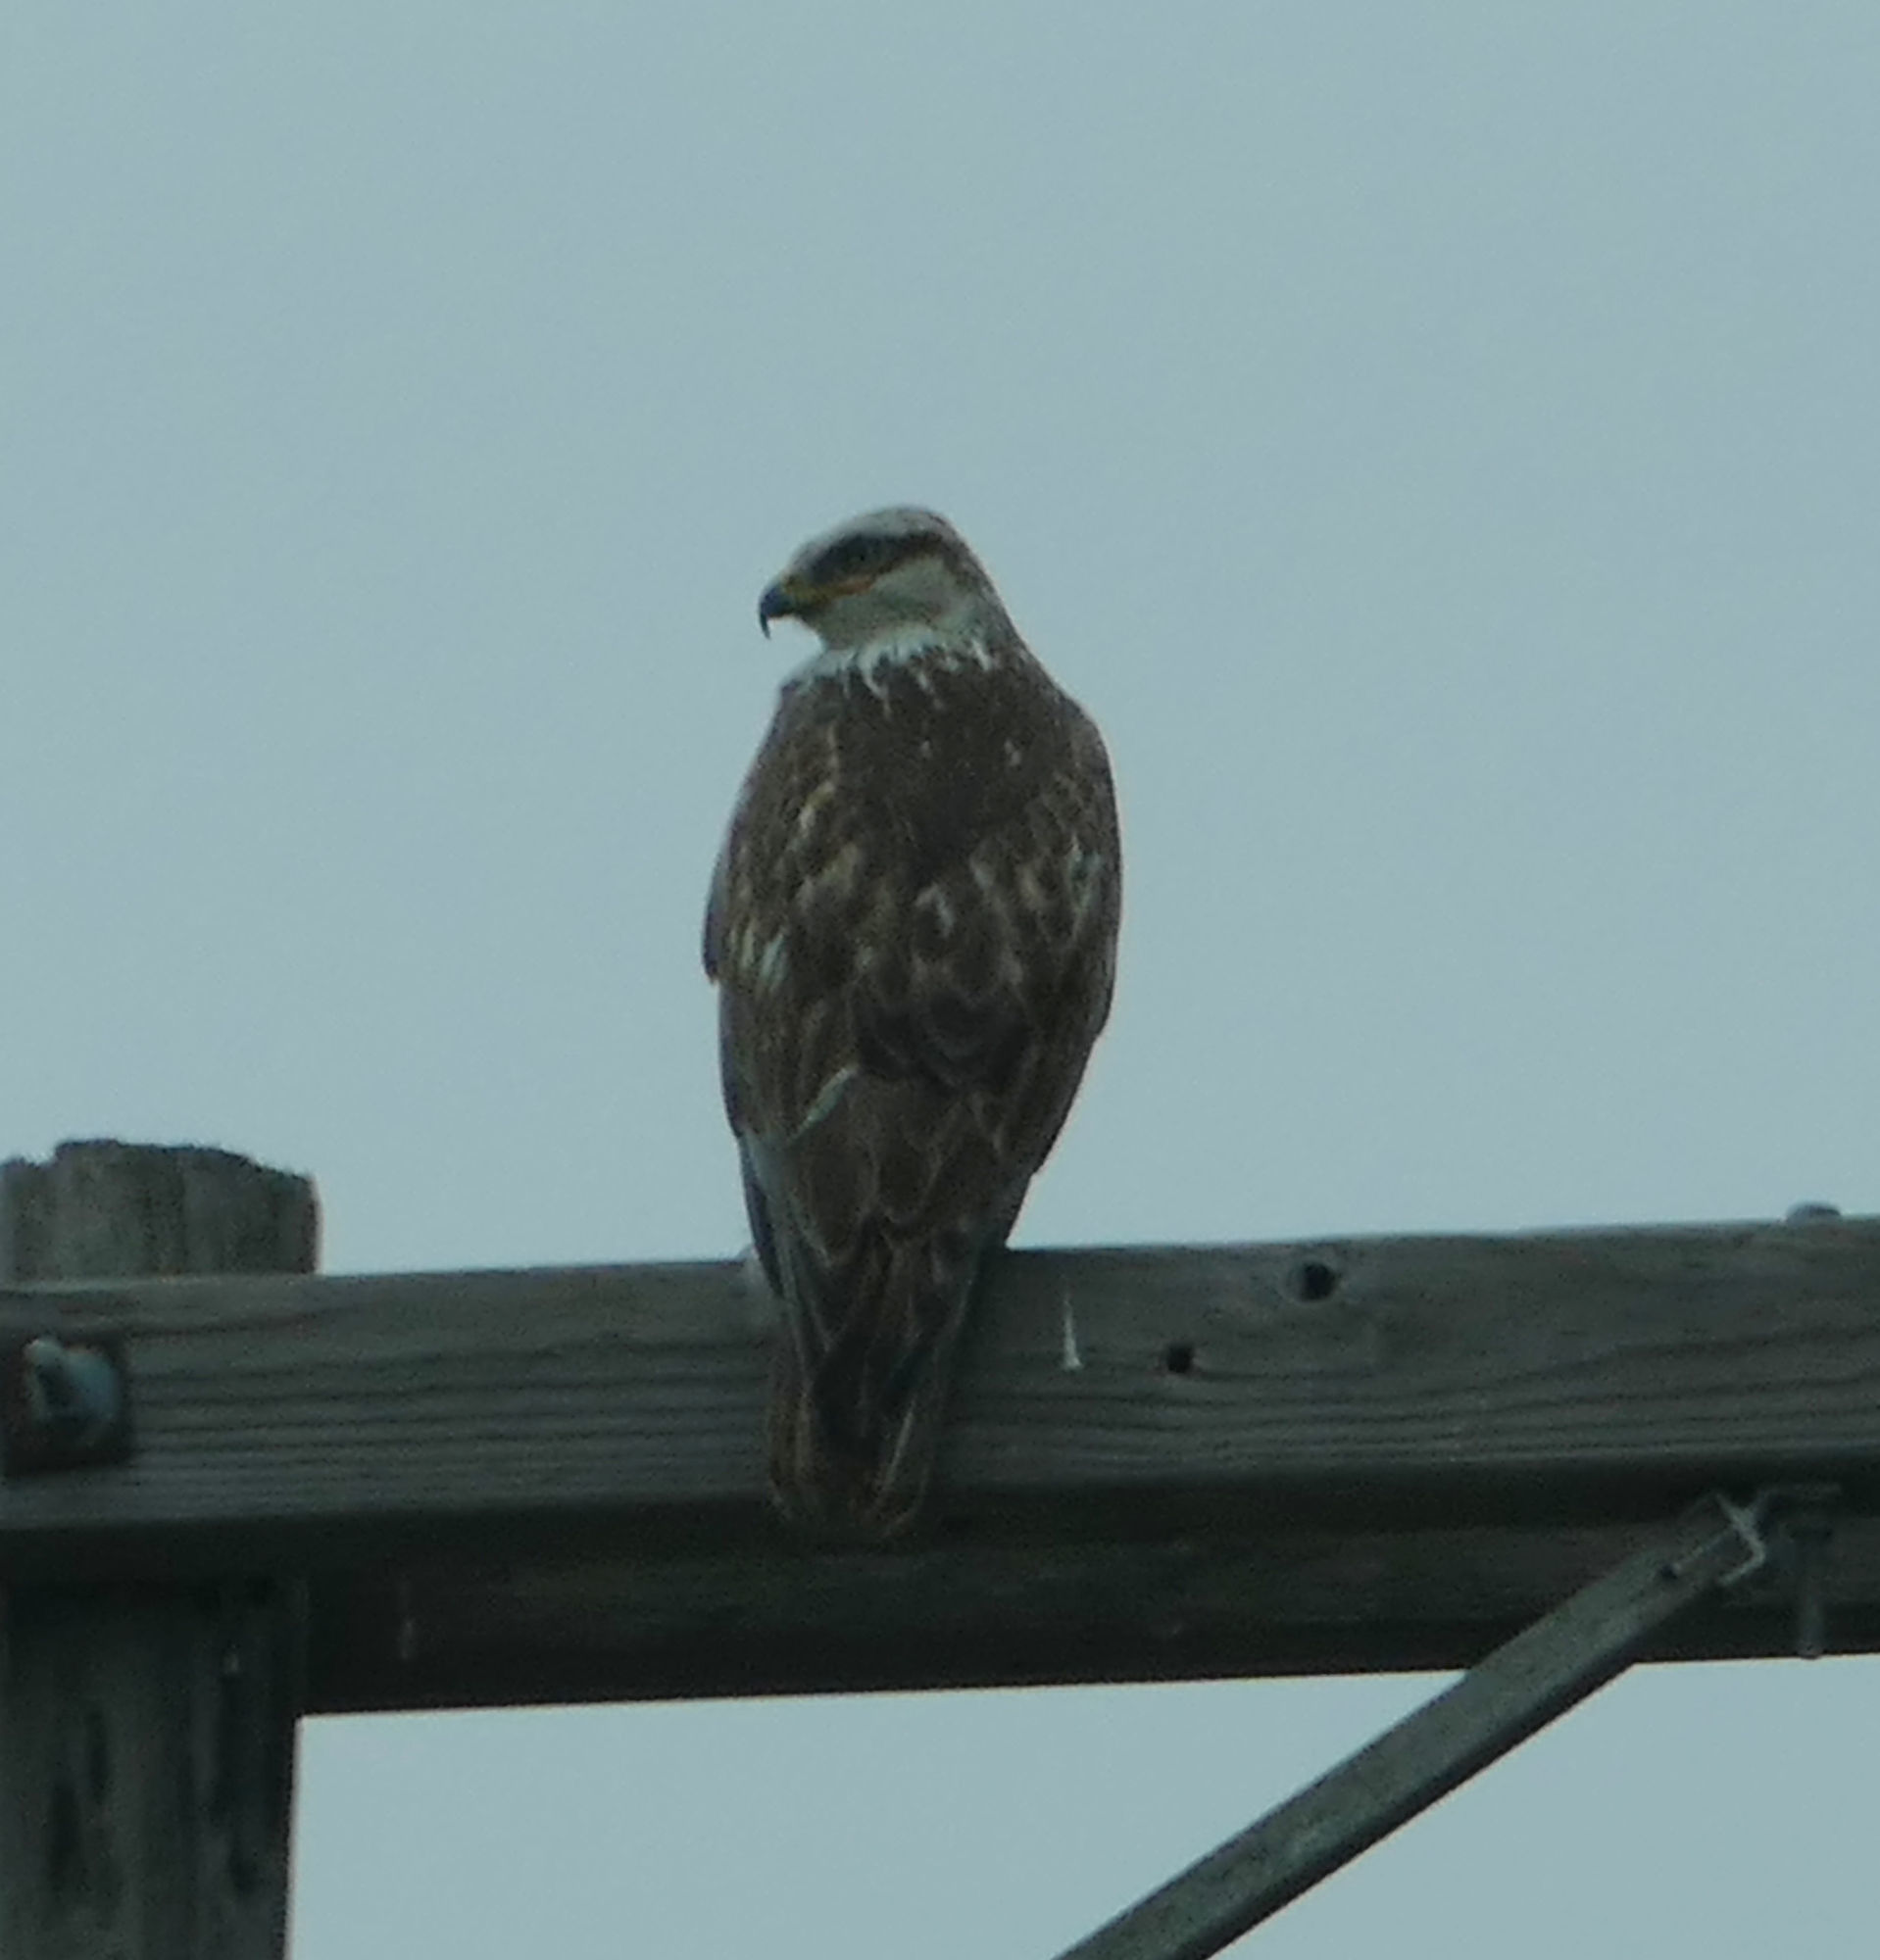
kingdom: Animalia
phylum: Chordata
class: Aves
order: Accipitriformes
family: Accipitridae
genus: Buteo
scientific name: Buteo regalis
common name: Ferruginous hawk
